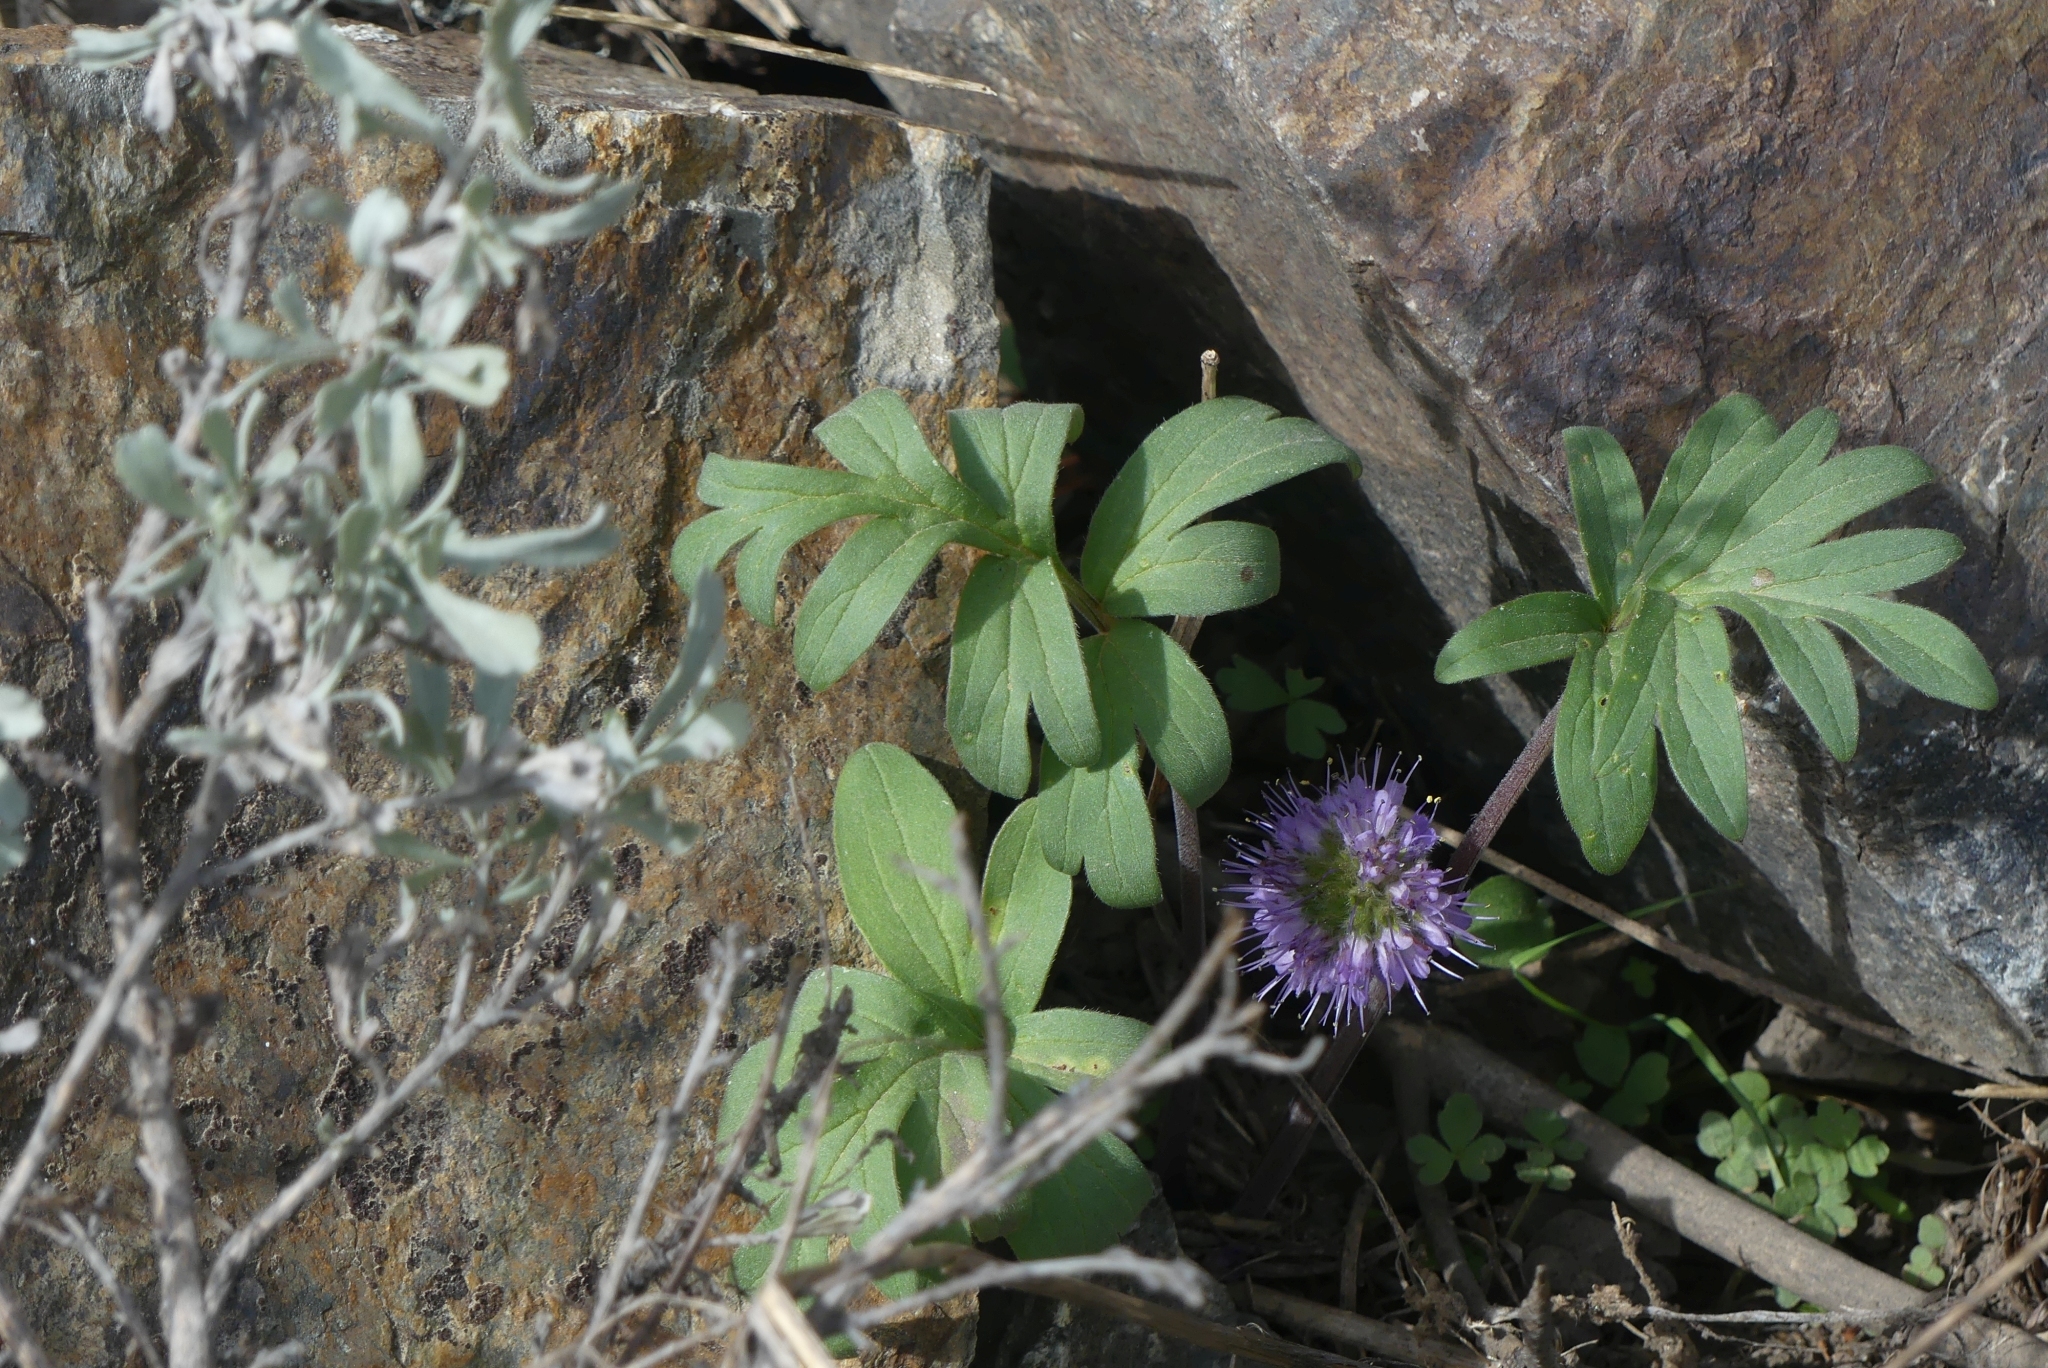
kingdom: Plantae
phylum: Tracheophyta
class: Magnoliopsida
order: Boraginales
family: Hydrophyllaceae
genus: Hydrophyllum
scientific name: Hydrophyllum capitatum
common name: Woollen-breeches
